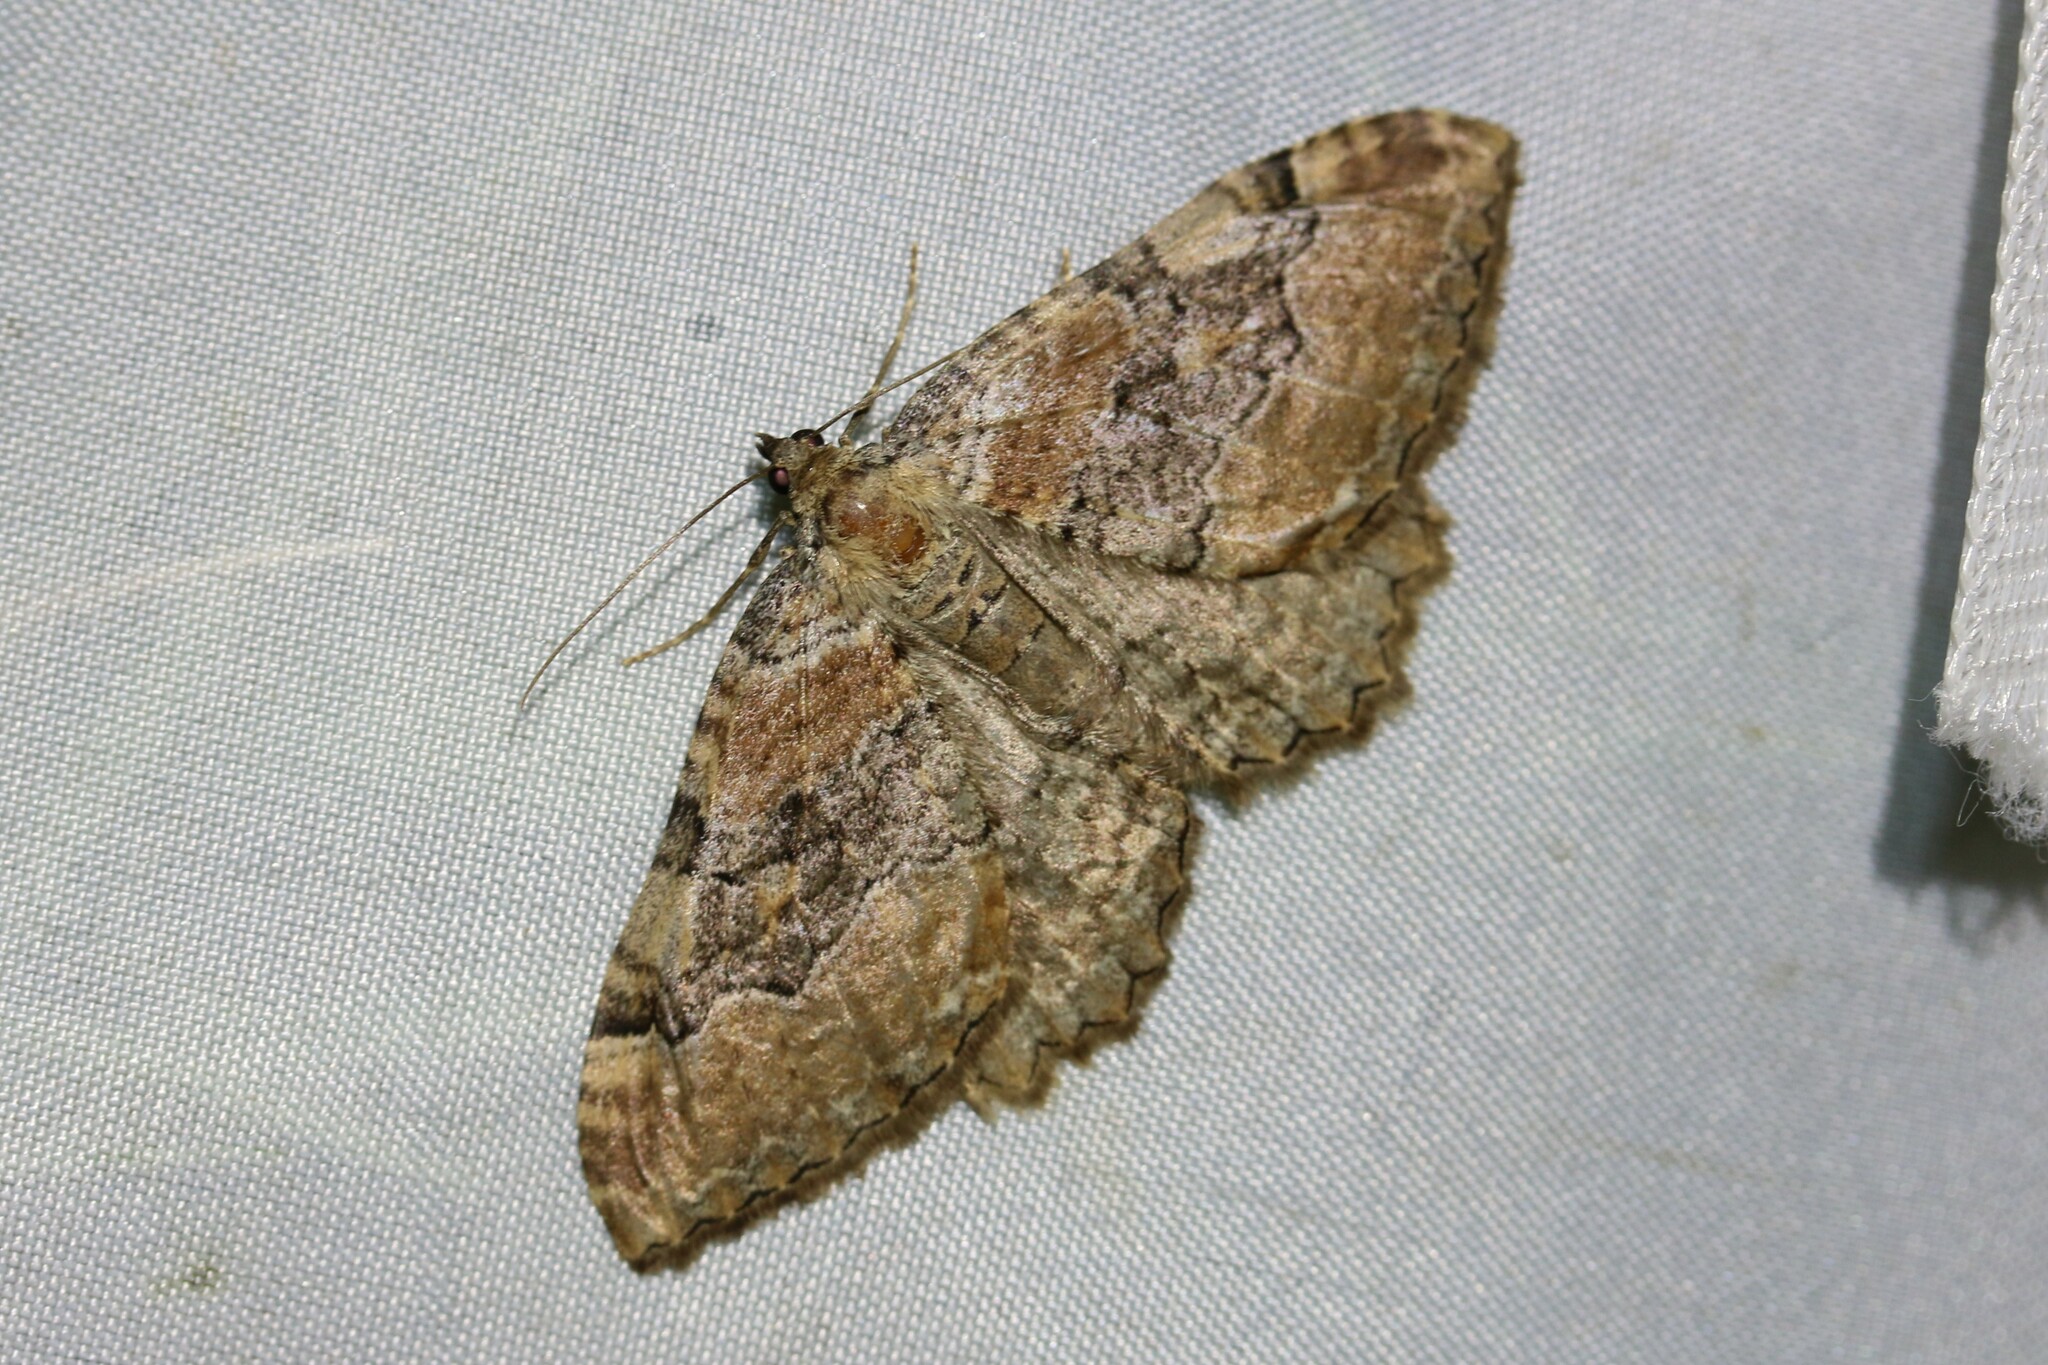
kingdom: Animalia
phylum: Arthropoda
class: Insecta
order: Lepidoptera
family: Geometridae
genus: Rheumaptera
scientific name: Rheumaptera Hydria cervinalis
